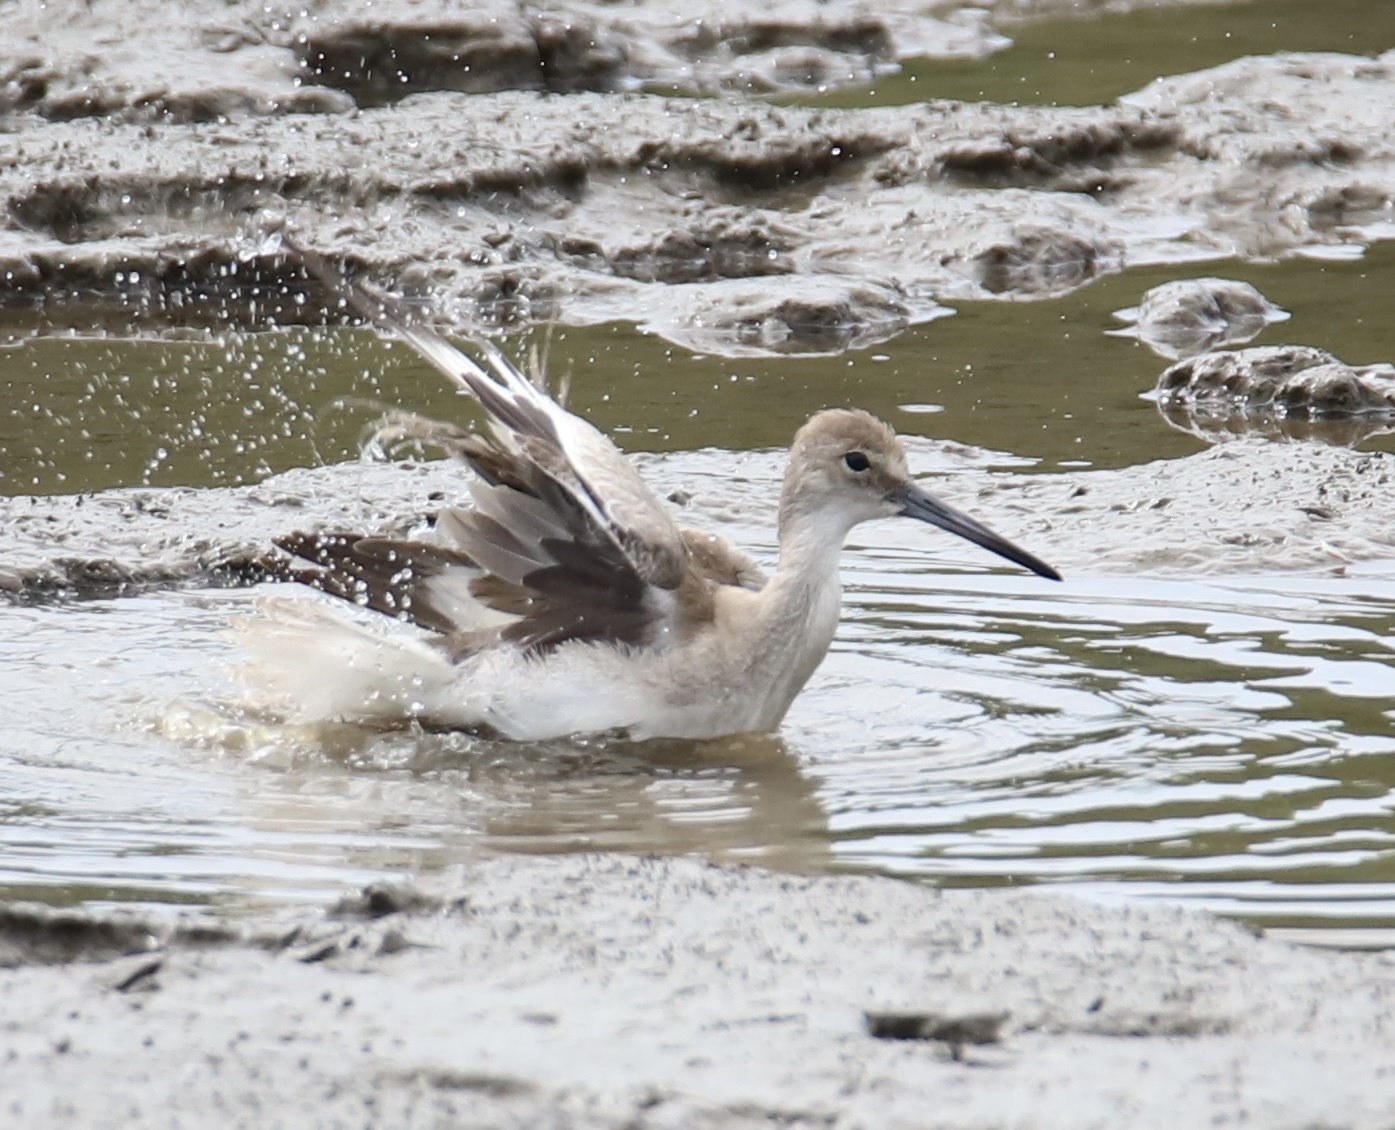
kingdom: Animalia
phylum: Chordata
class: Aves
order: Charadriiformes
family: Scolopacidae
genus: Tringa
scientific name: Tringa semipalmata
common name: Willet
